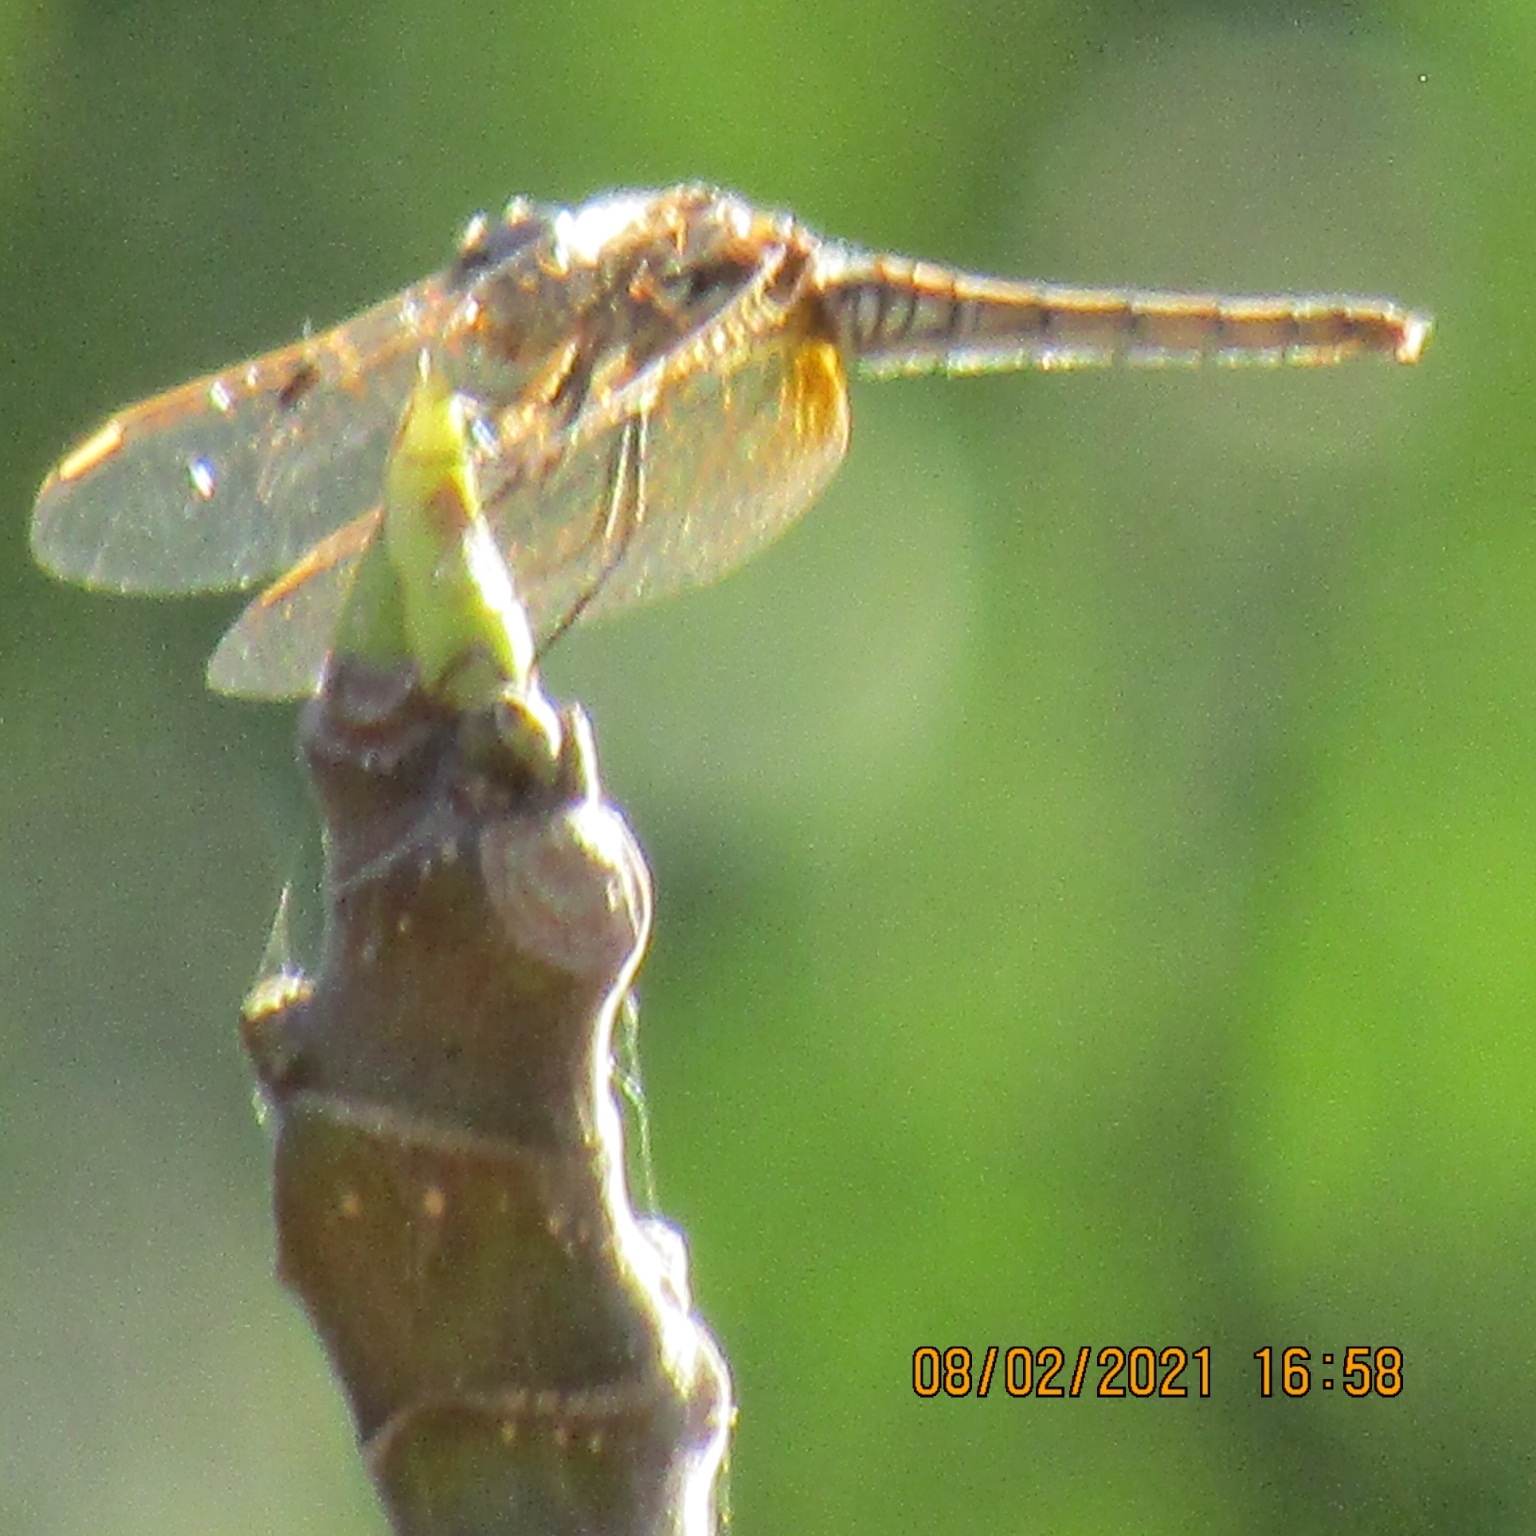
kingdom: Animalia
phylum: Arthropoda
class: Insecta
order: Odonata
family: Libellulidae
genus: Trithemis
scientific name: Trithemis annulata
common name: Violet dropwing
